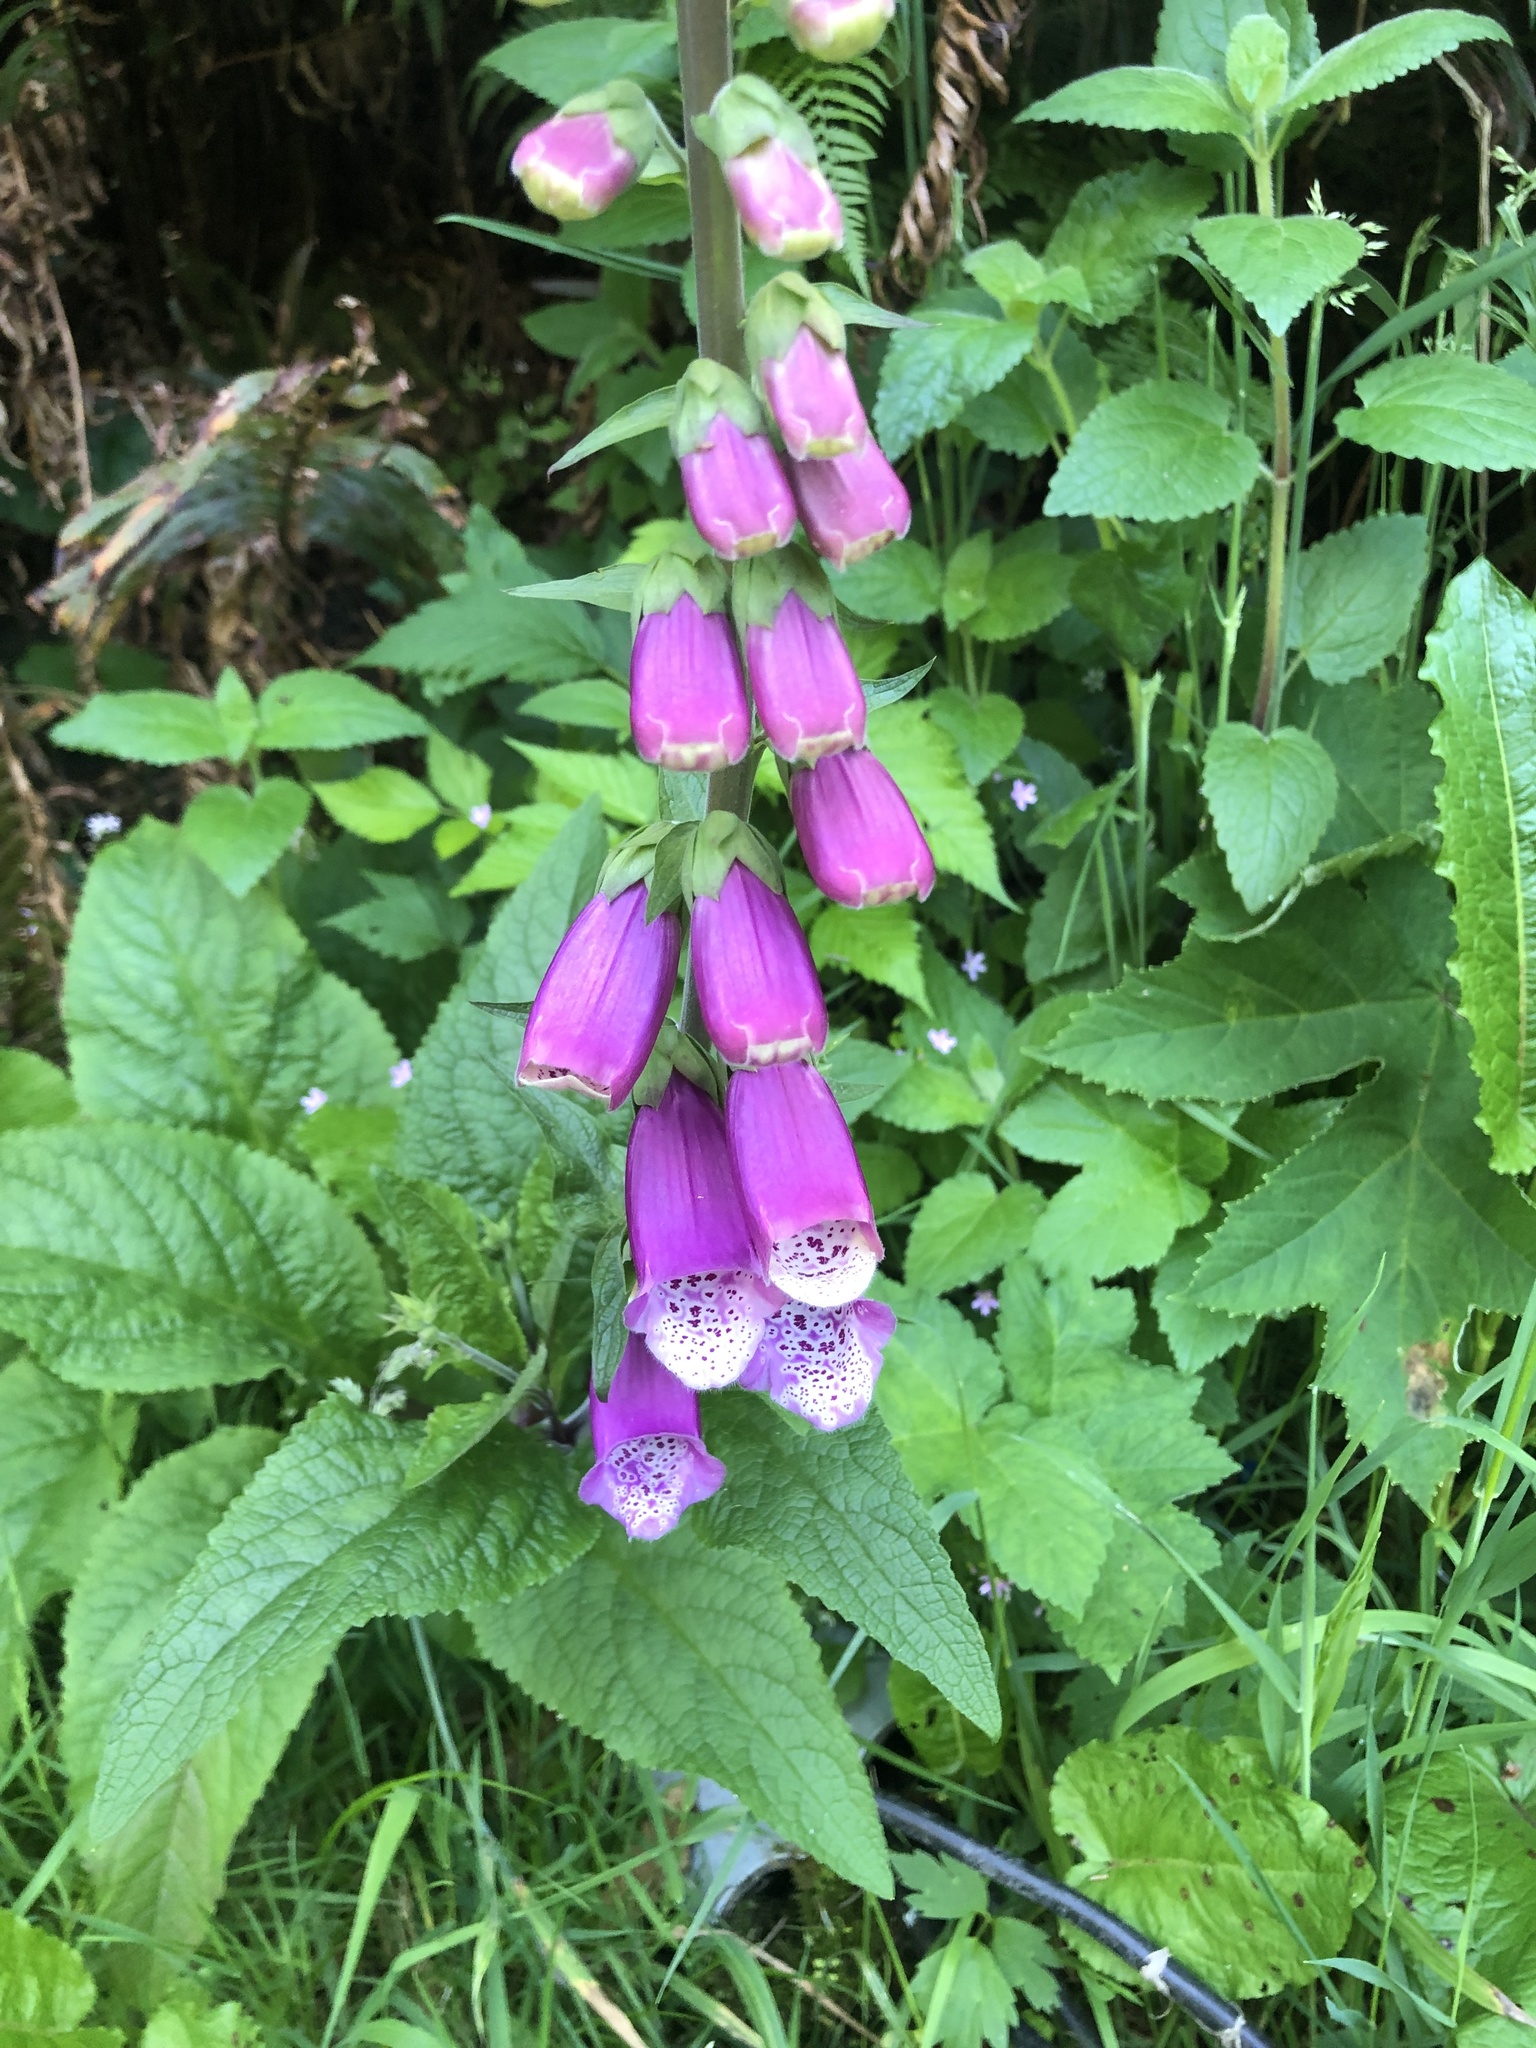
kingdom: Plantae
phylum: Tracheophyta
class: Magnoliopsida
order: Lamiales
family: Plantaginaceae
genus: Digitalis
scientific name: Digitalis purpurea
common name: Foxglove
